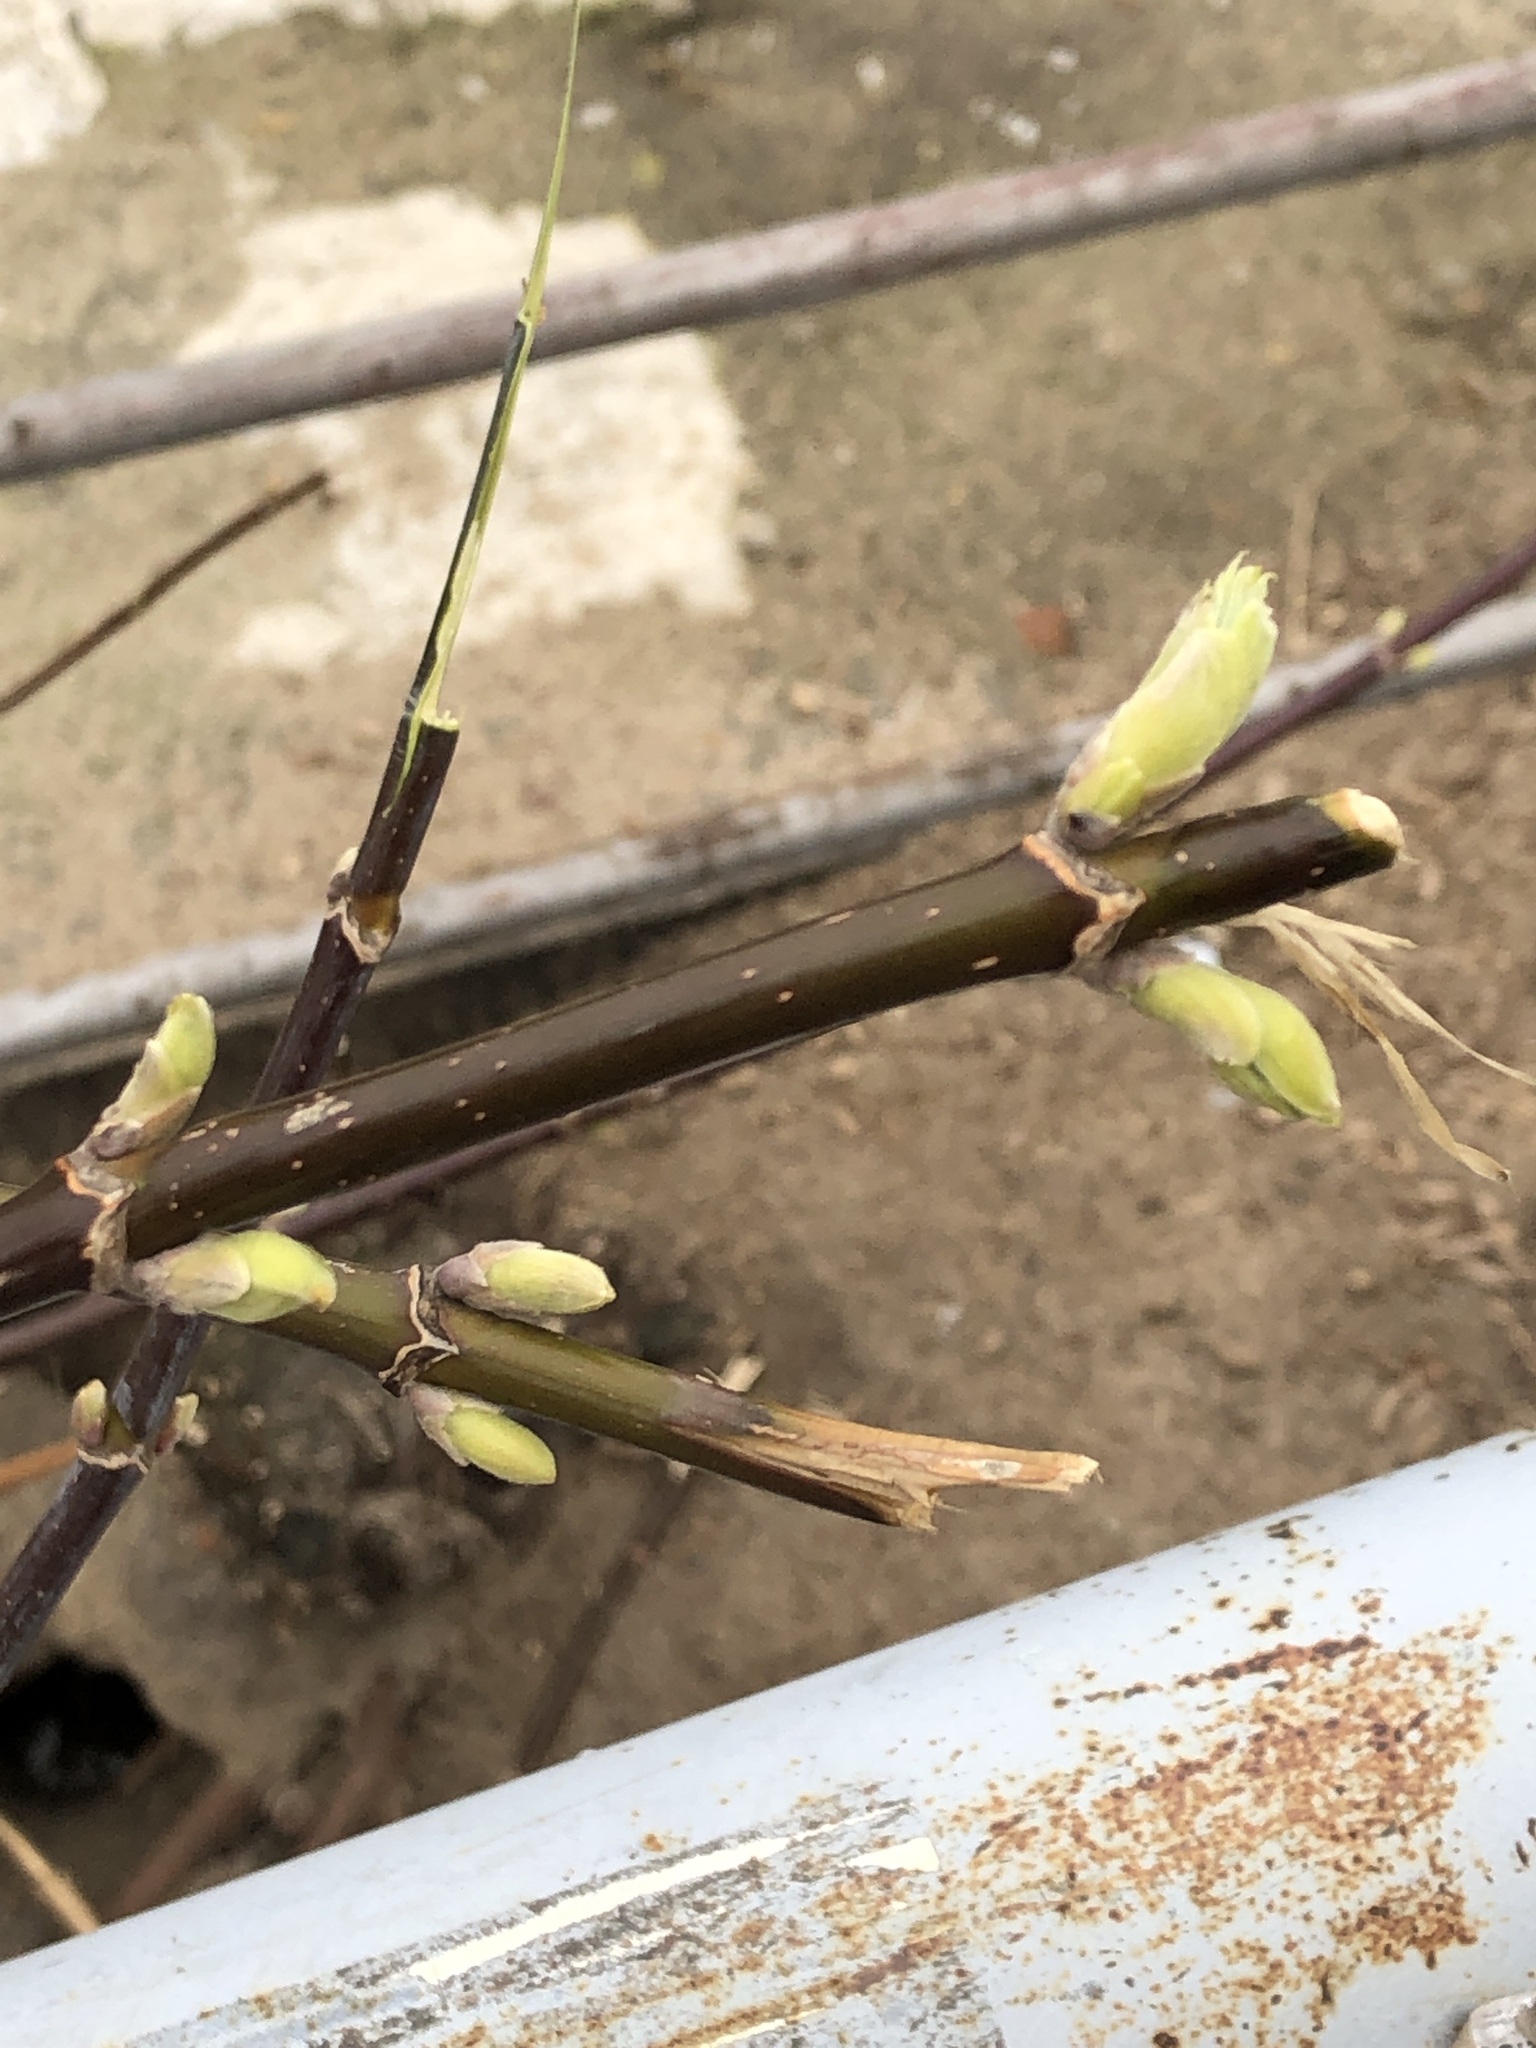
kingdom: Plantae
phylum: Tracheophyta
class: Magnoliopsida
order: Sapindales
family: Sapindaceae
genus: Acer
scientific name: Acer negundo
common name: Ashleaf maple
